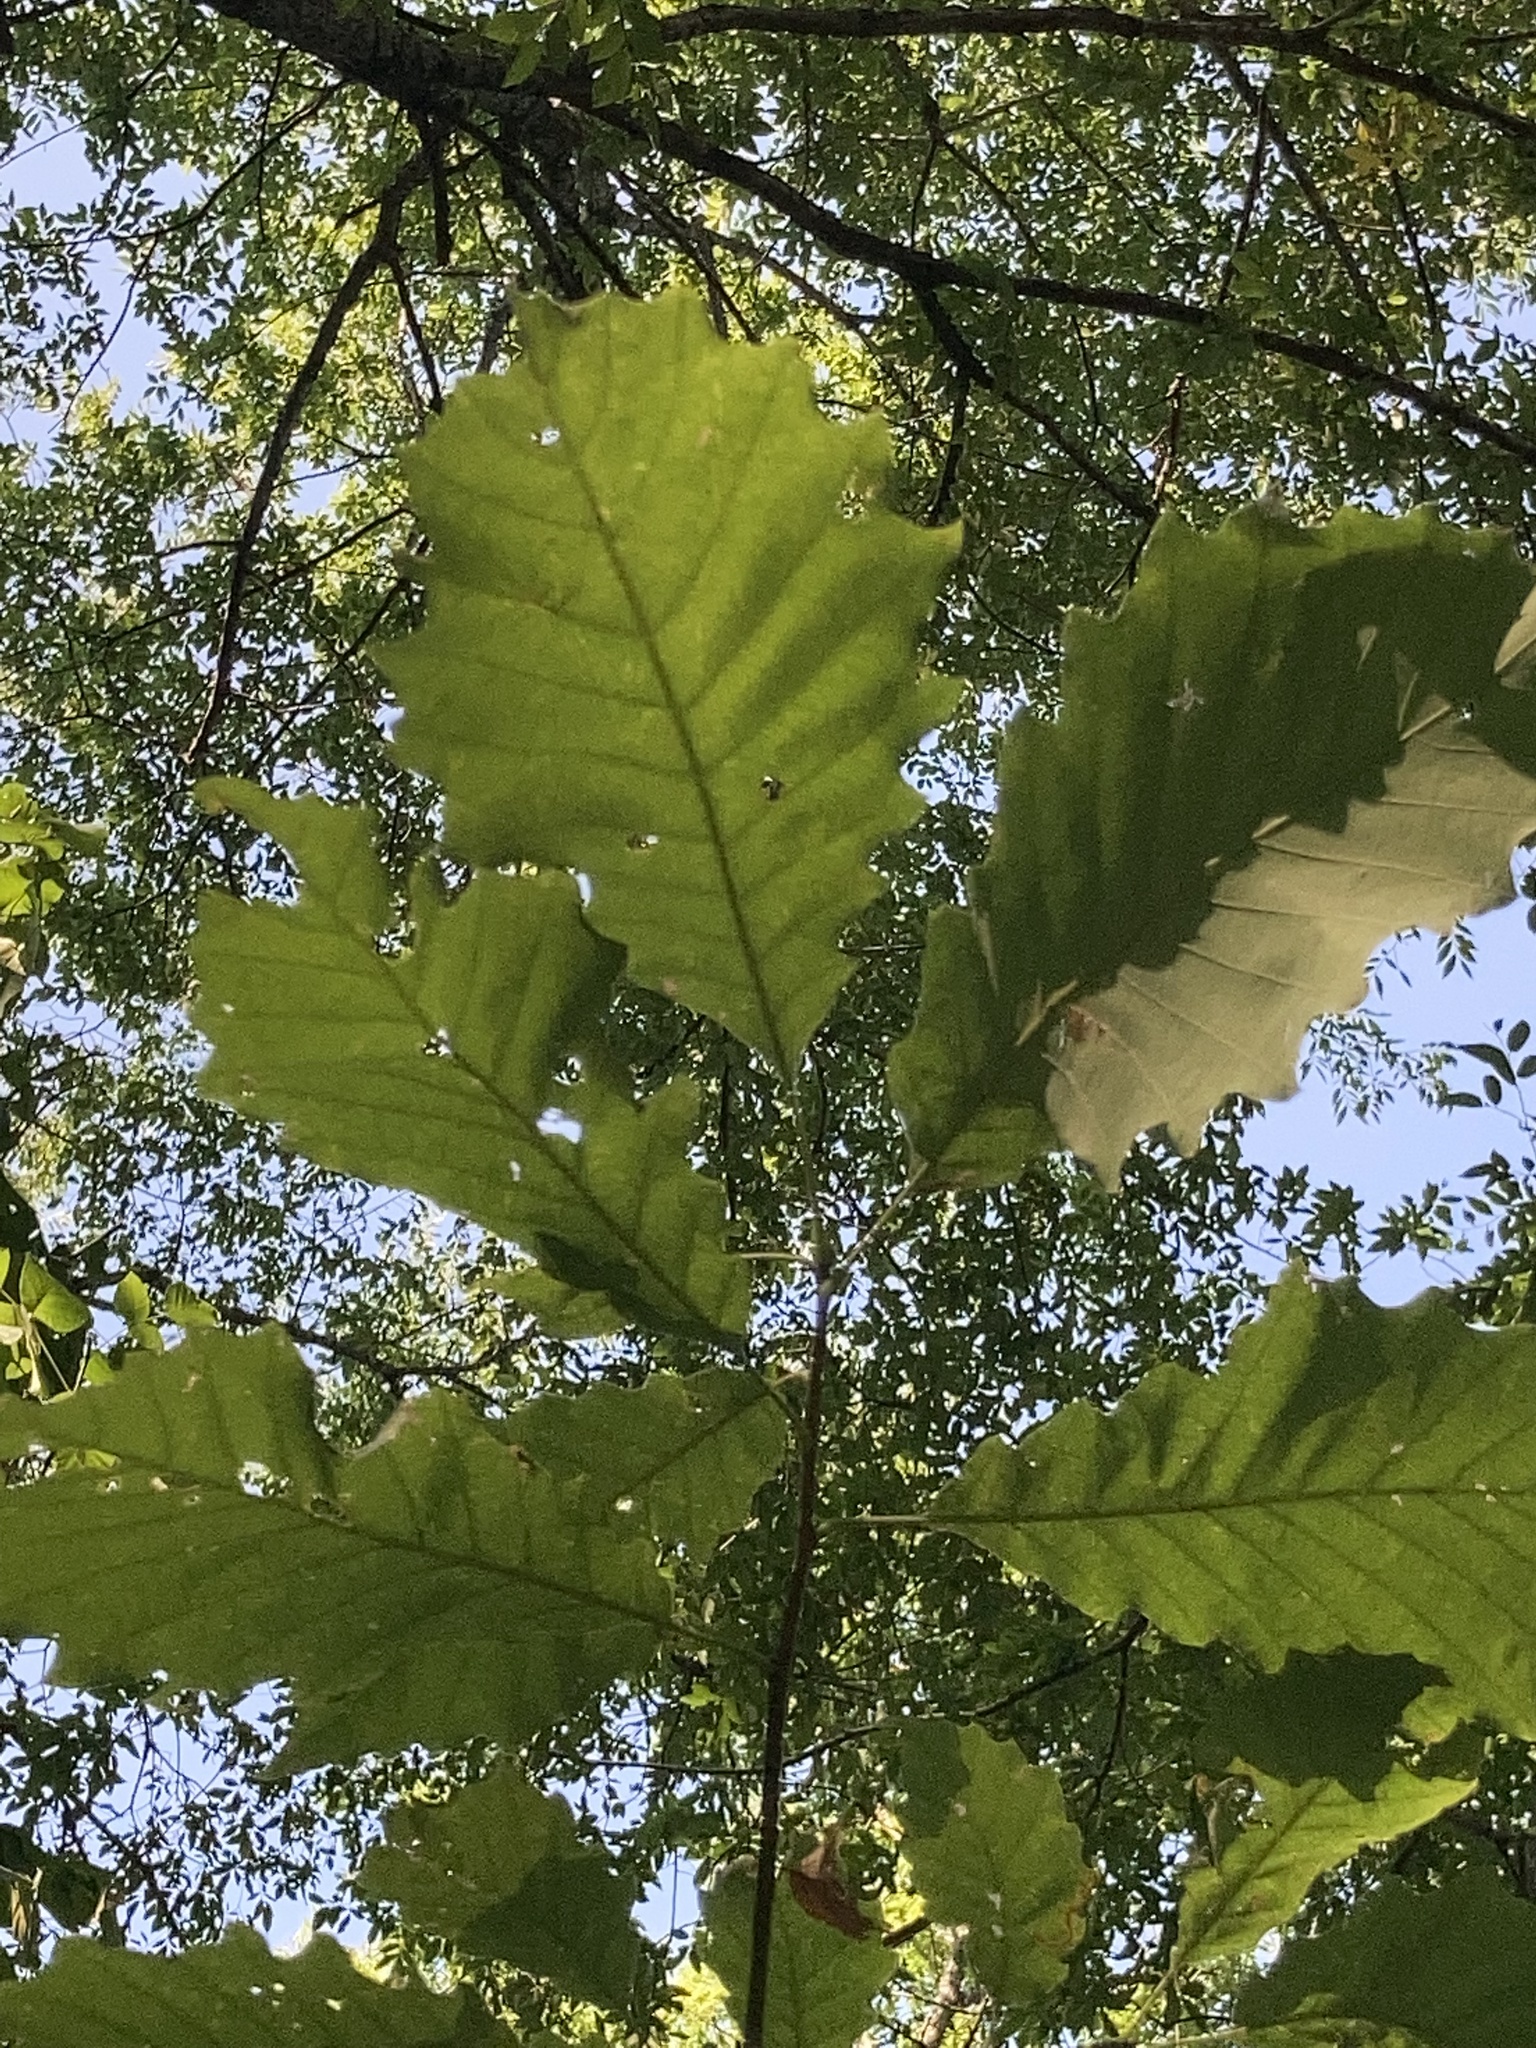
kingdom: Plantae
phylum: Tracheophyta
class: Magnoliopsida
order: Fagales
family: Fagaceae
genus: Quercus
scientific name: Quercus muehlenbergii
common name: Chinkapin oak
